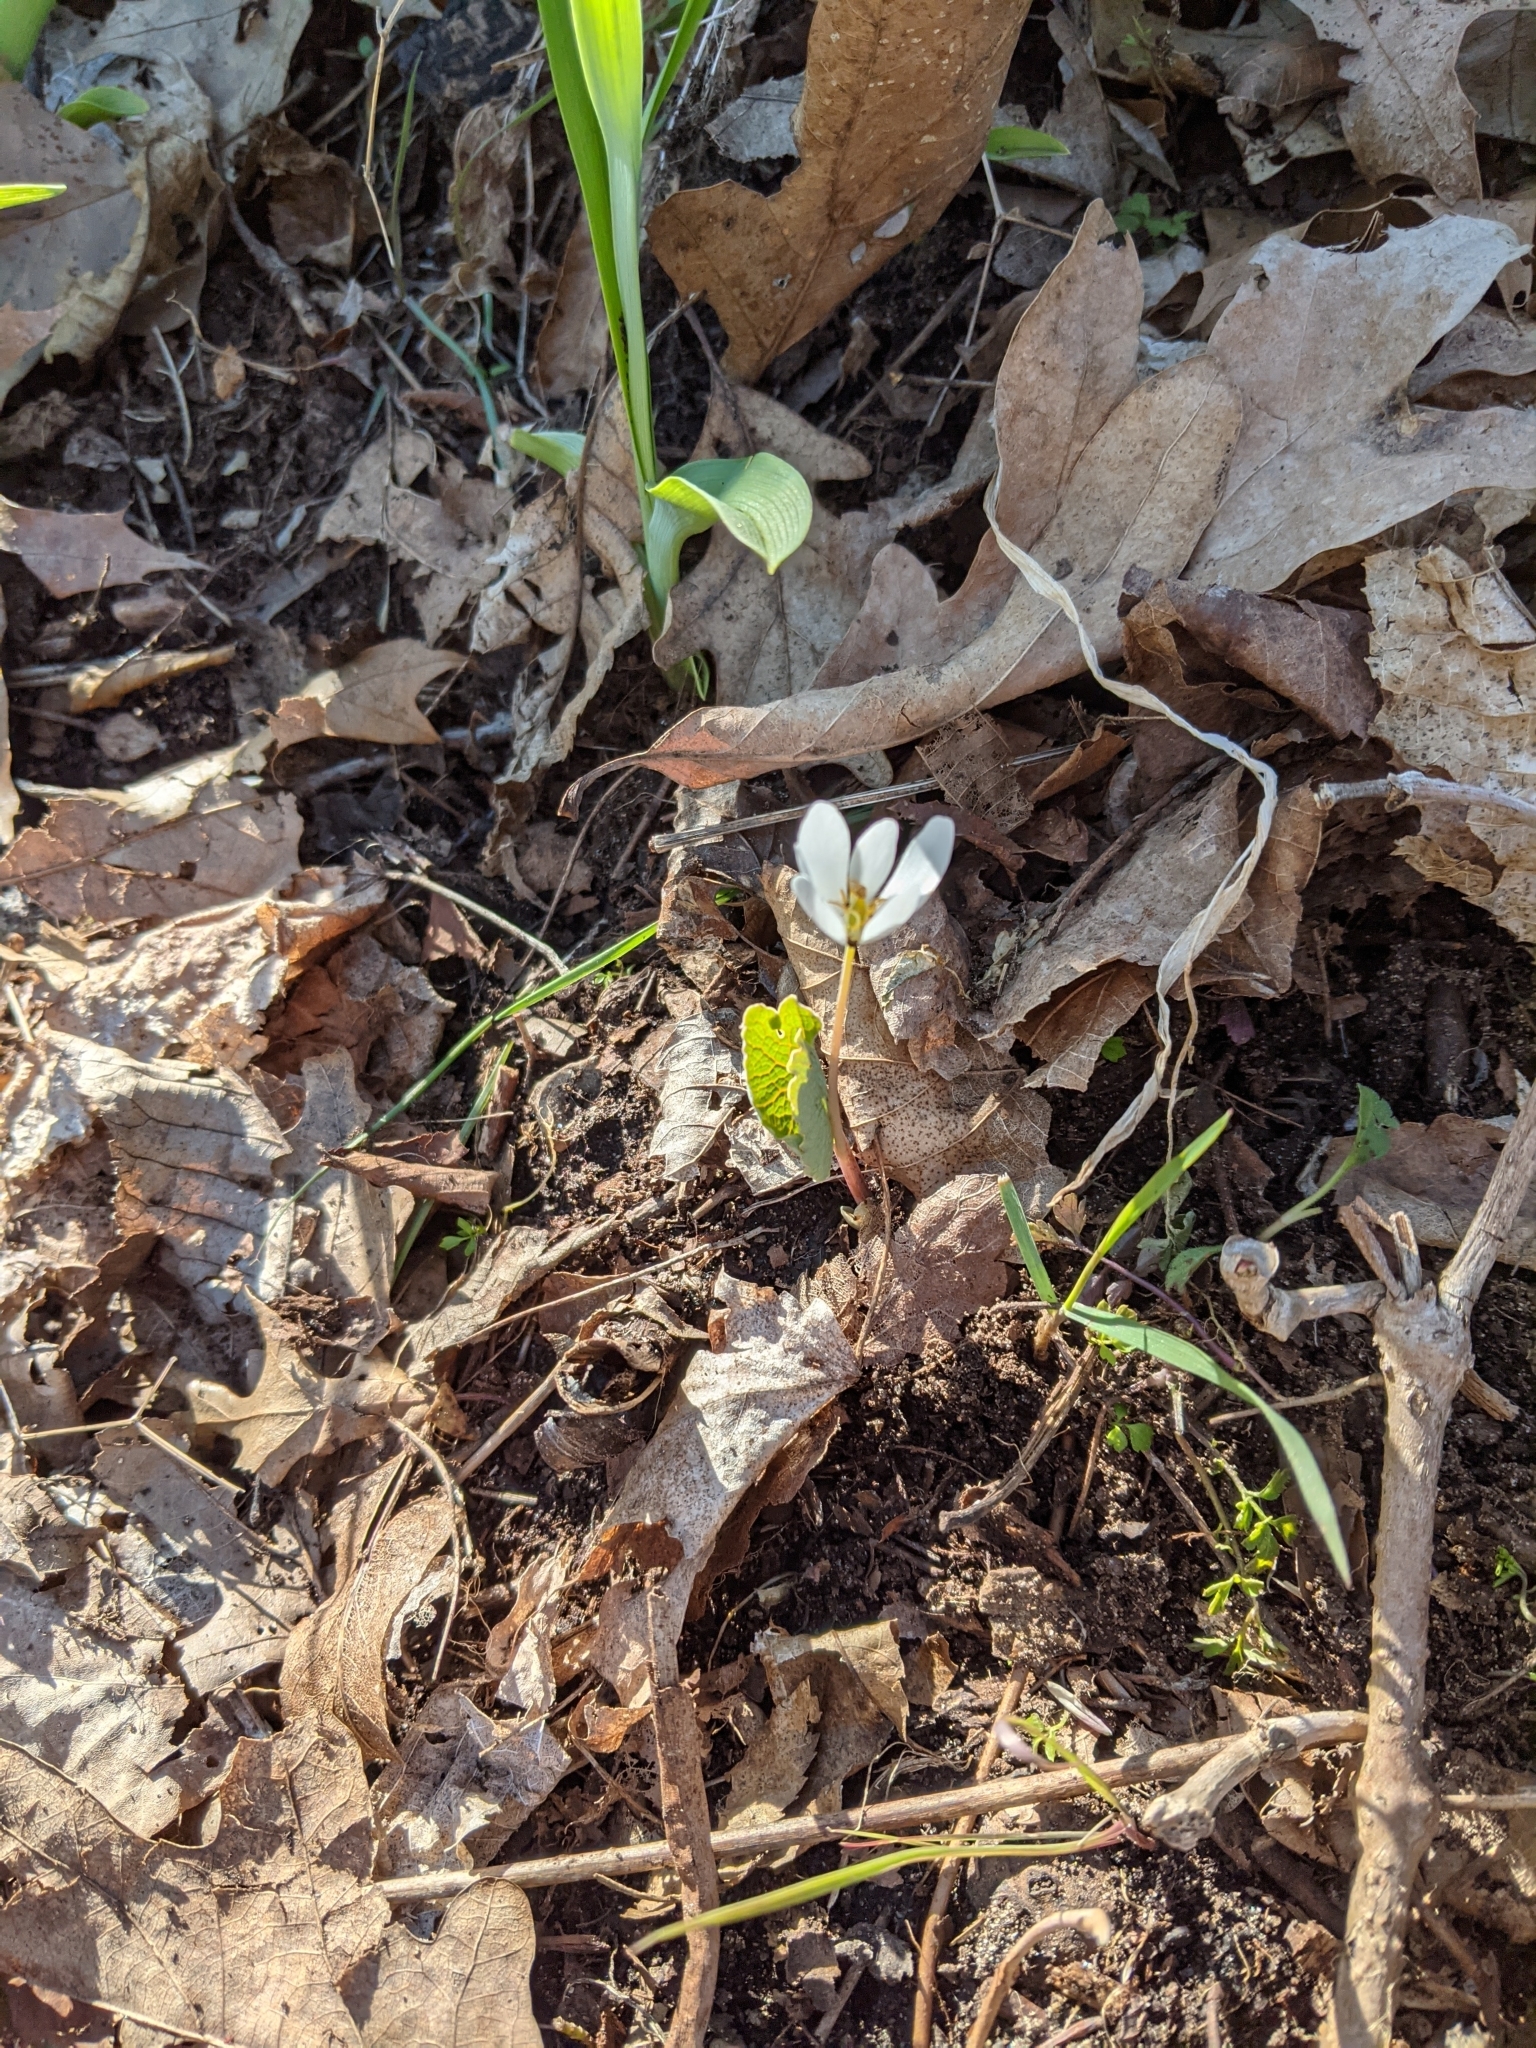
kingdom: Plantae
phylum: Tracheophyta
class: Magnoliopsida
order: Ranunculales
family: Papaveraceae
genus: Sanguinaria
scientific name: Sanguinaria canadensis
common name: Bloodroot
